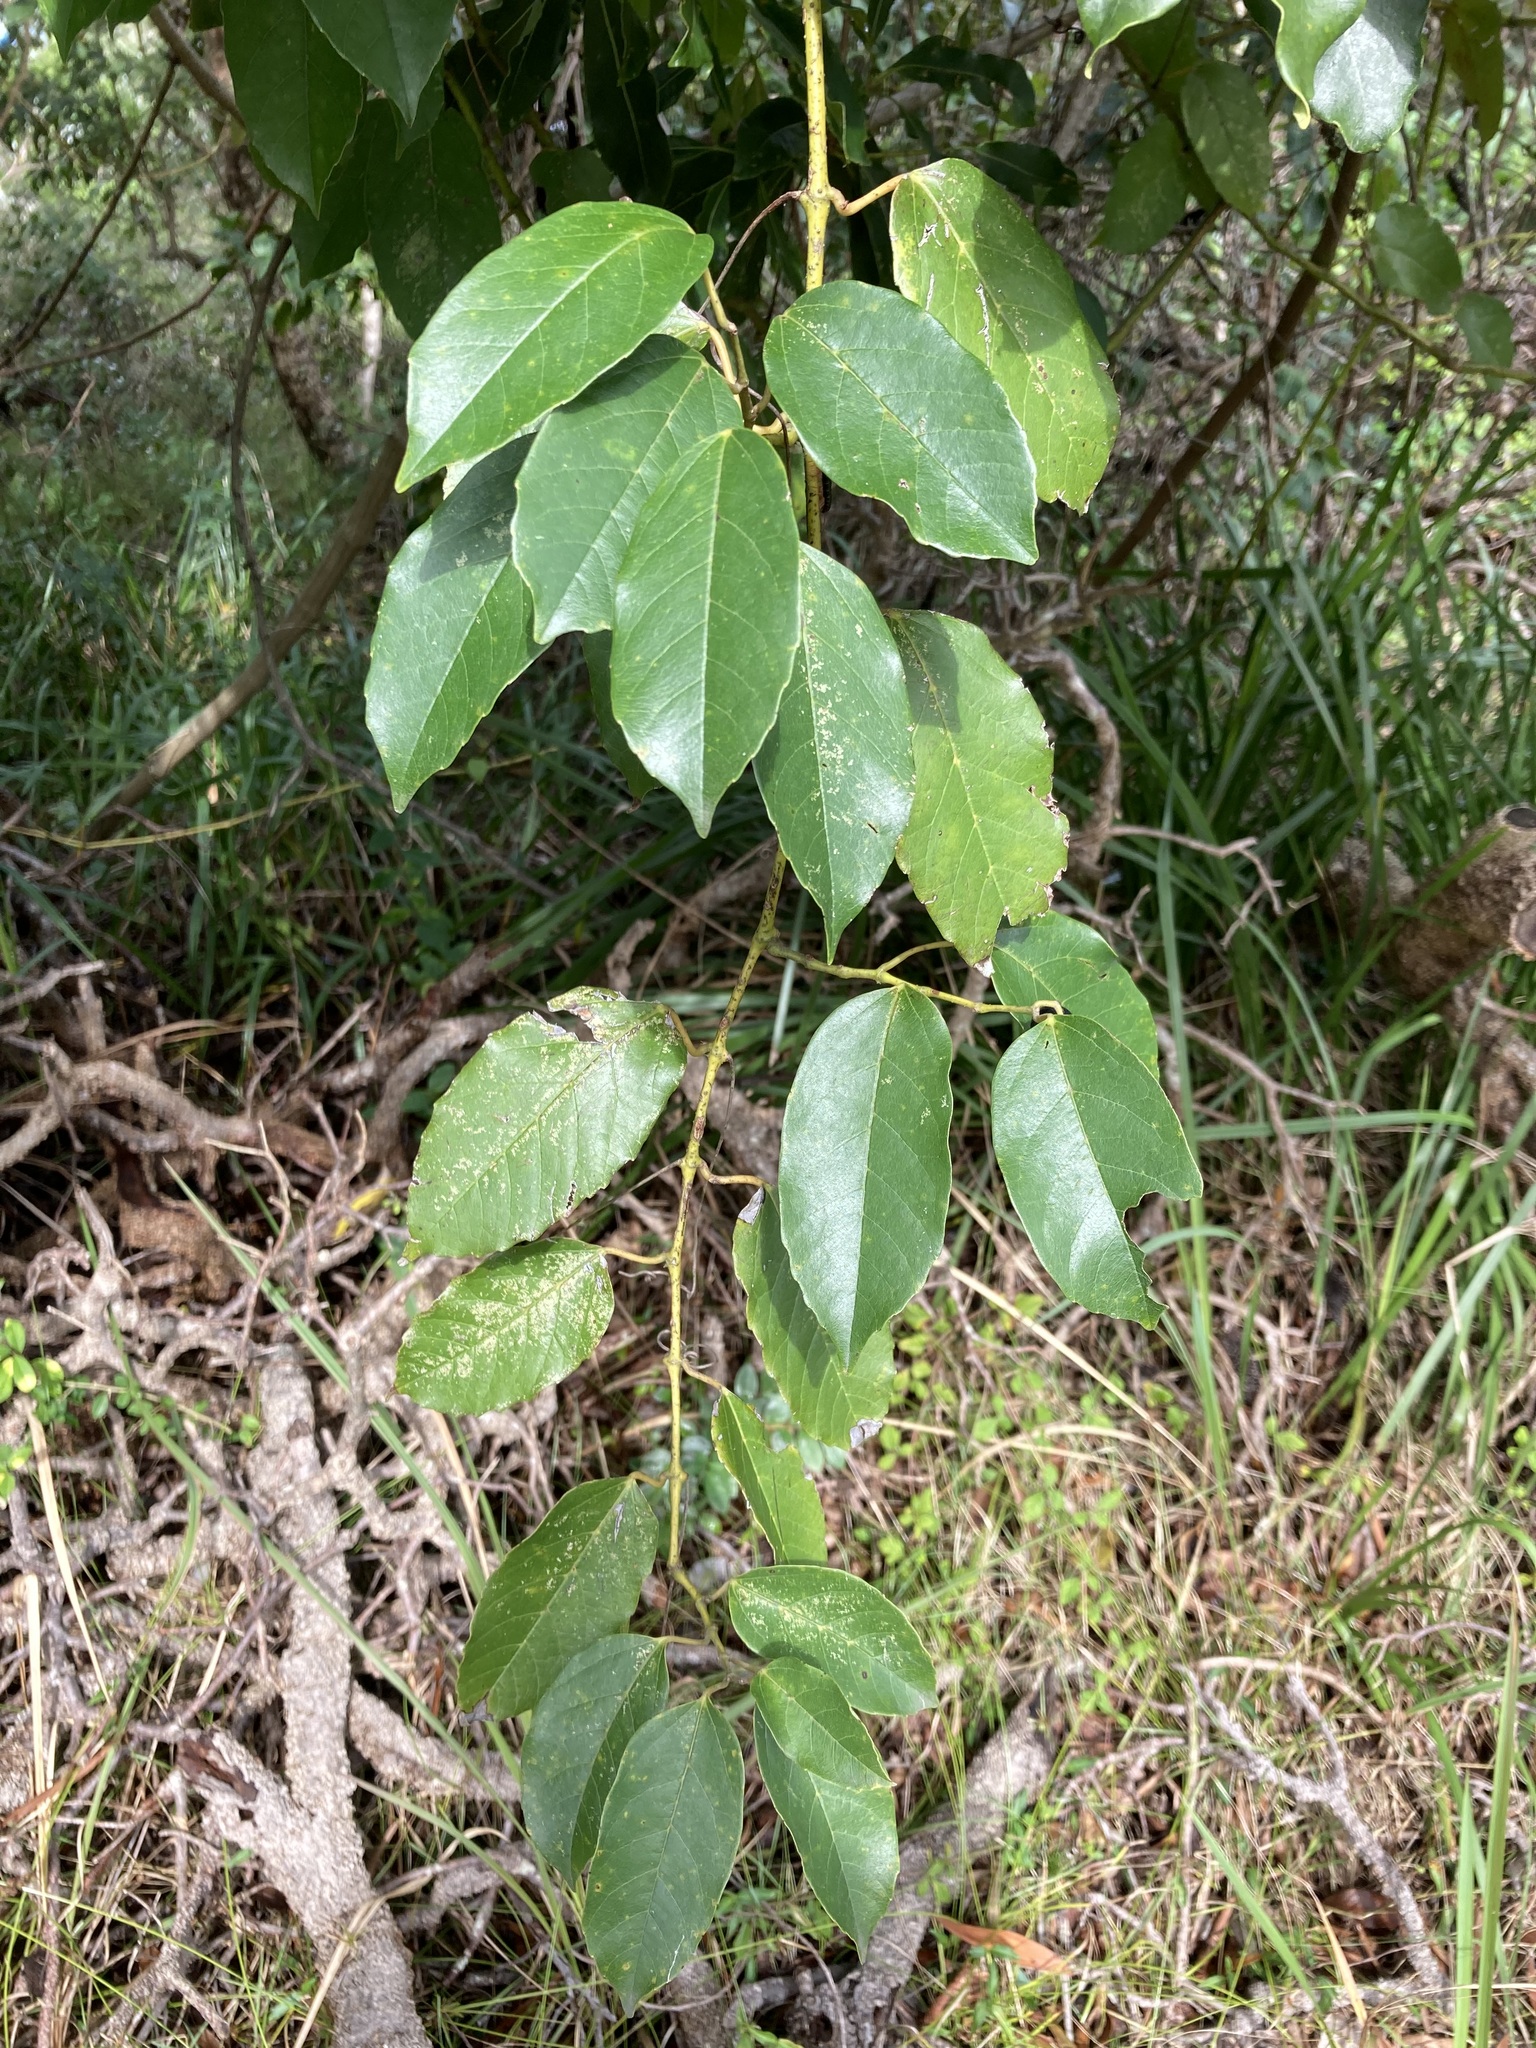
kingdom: Plantae
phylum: Tracheophyta
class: Magnoliopsida
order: Vitales
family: Vitaceae
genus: Cissus
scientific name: Cissus antarctica
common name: Kangaroo vine
